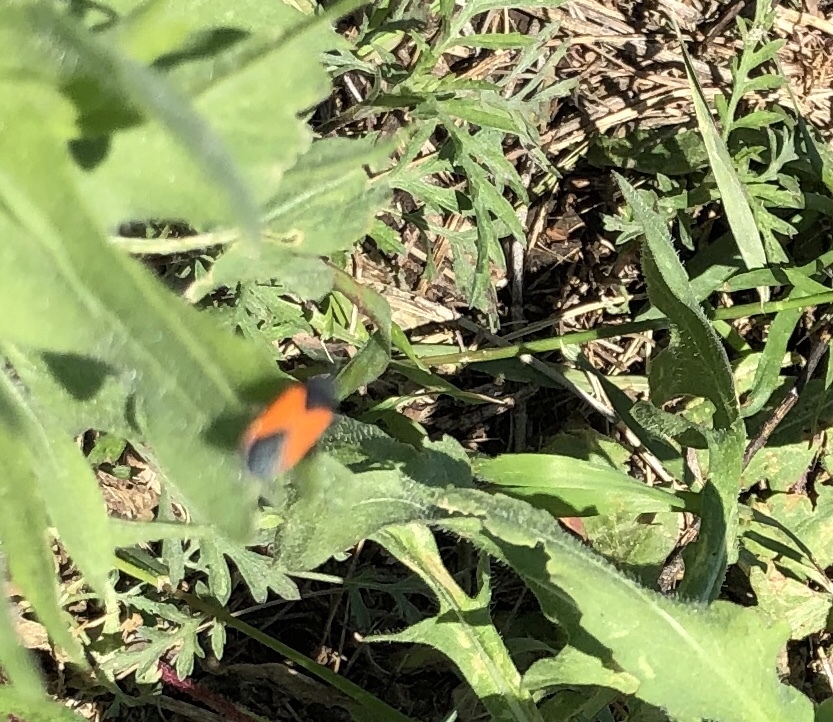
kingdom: Animalia
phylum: Arthropoda
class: Insecta
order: Hemiptera
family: Lygaeidae
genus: Melanopleurus
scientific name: Melanopleurus belfragei
